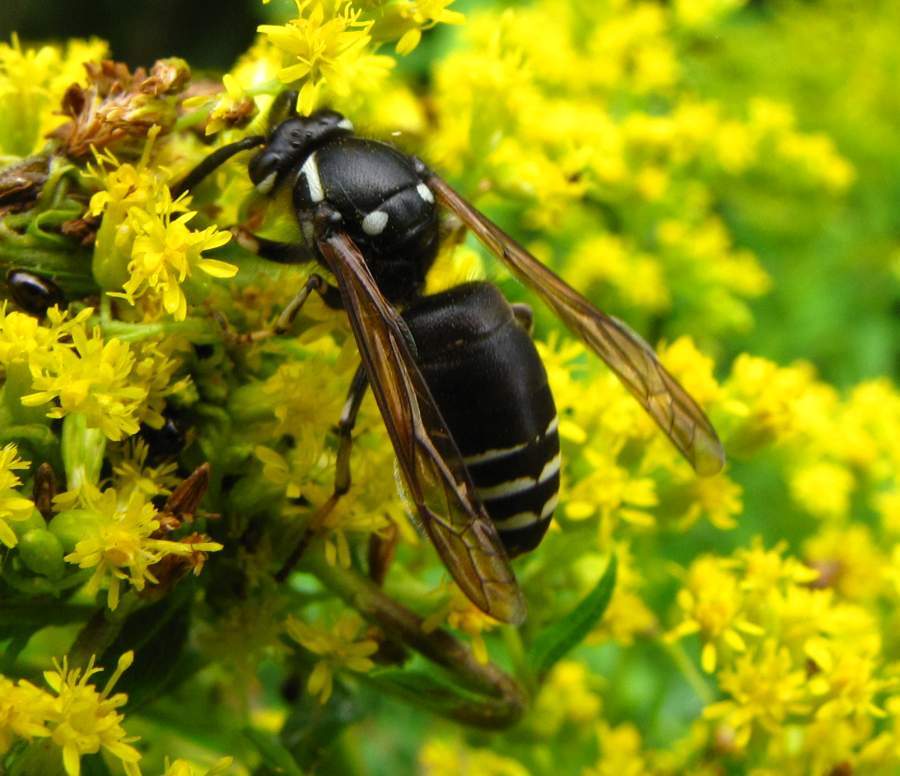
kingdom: Animalia
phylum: Arthropoda
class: Insecta
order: Hymenoptera
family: Vespidae
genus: Dolichovespula
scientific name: Dolichovespula adulterina
